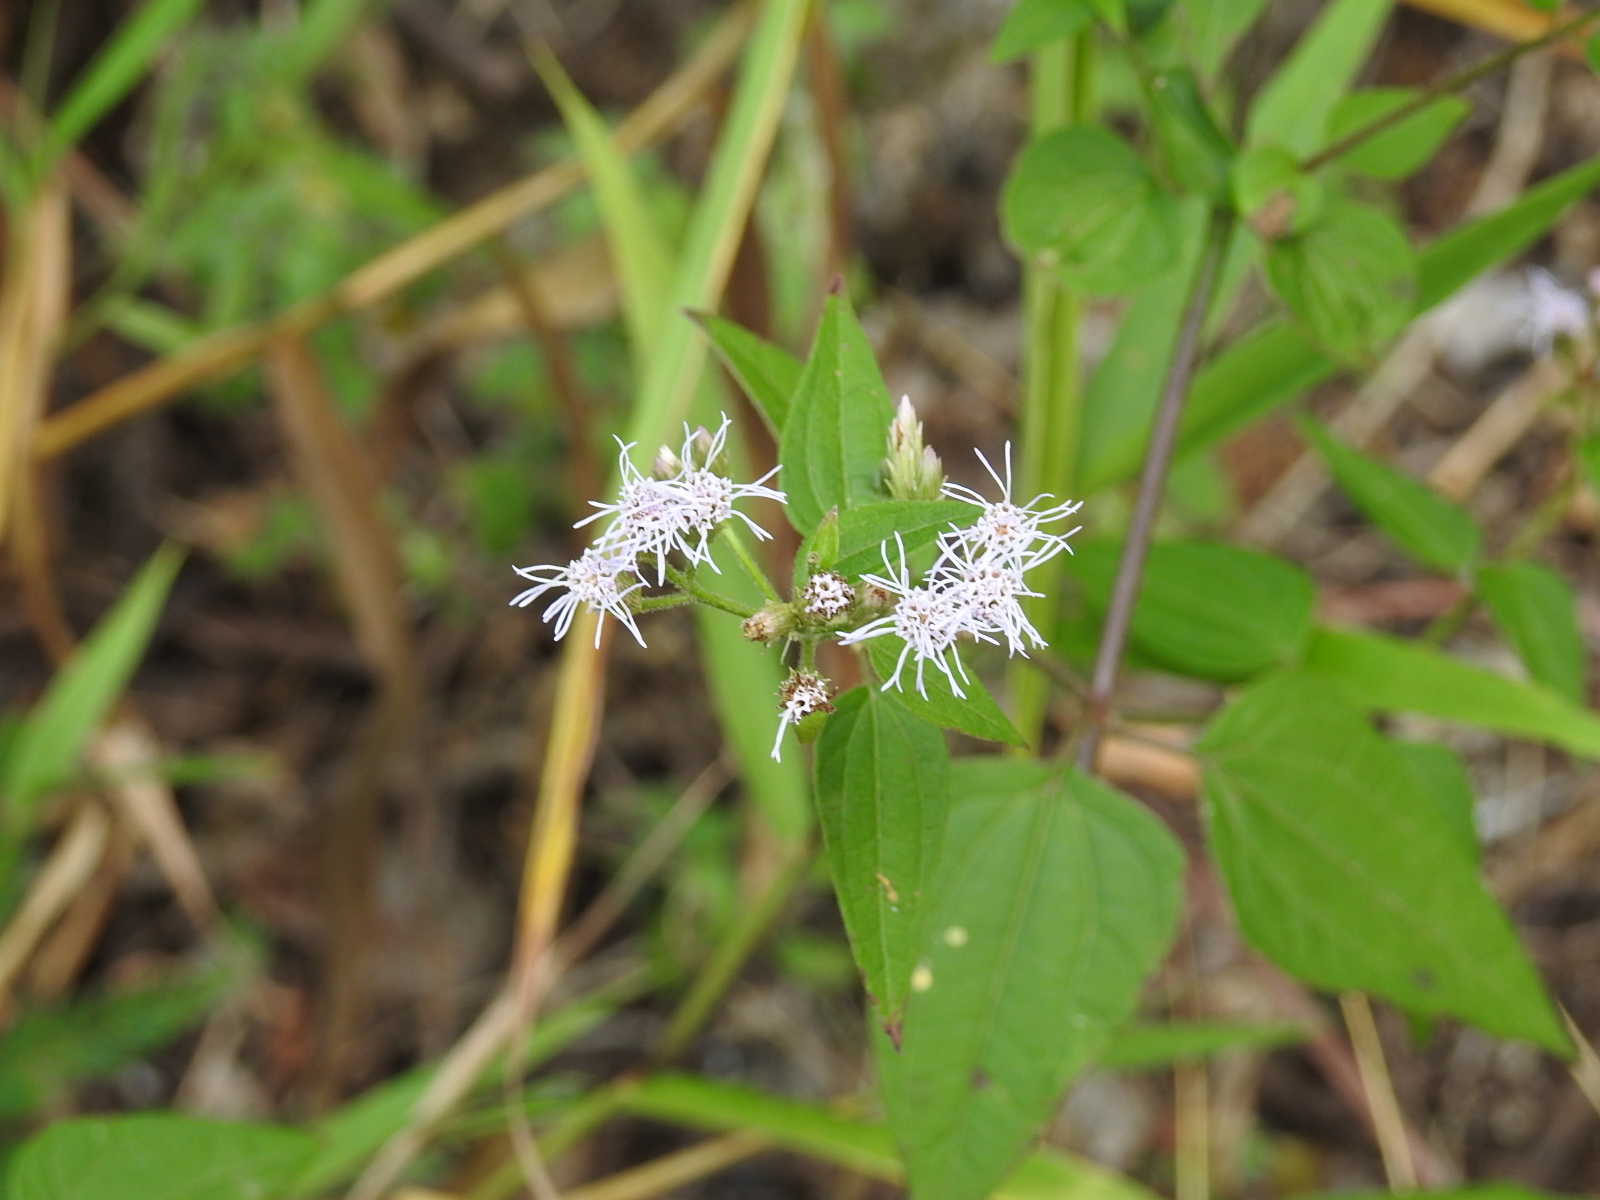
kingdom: Plantae
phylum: Tracheophyta
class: Magnoliopsida
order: Asterales
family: Asteraceae
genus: Chromolaena
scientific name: Chromolaena odorata
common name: Siamweed
